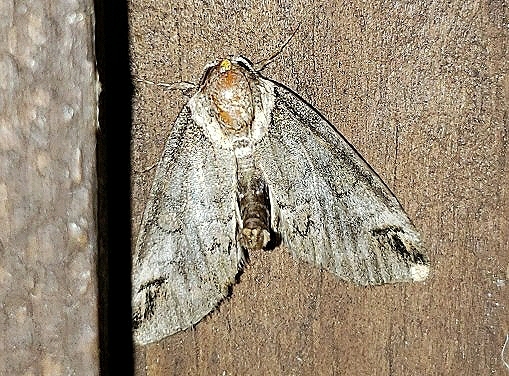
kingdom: Animalia
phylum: Arthropoda
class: Insecta
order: Lepidoptera
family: Nolidae
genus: Baileya
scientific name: Baileya australis
